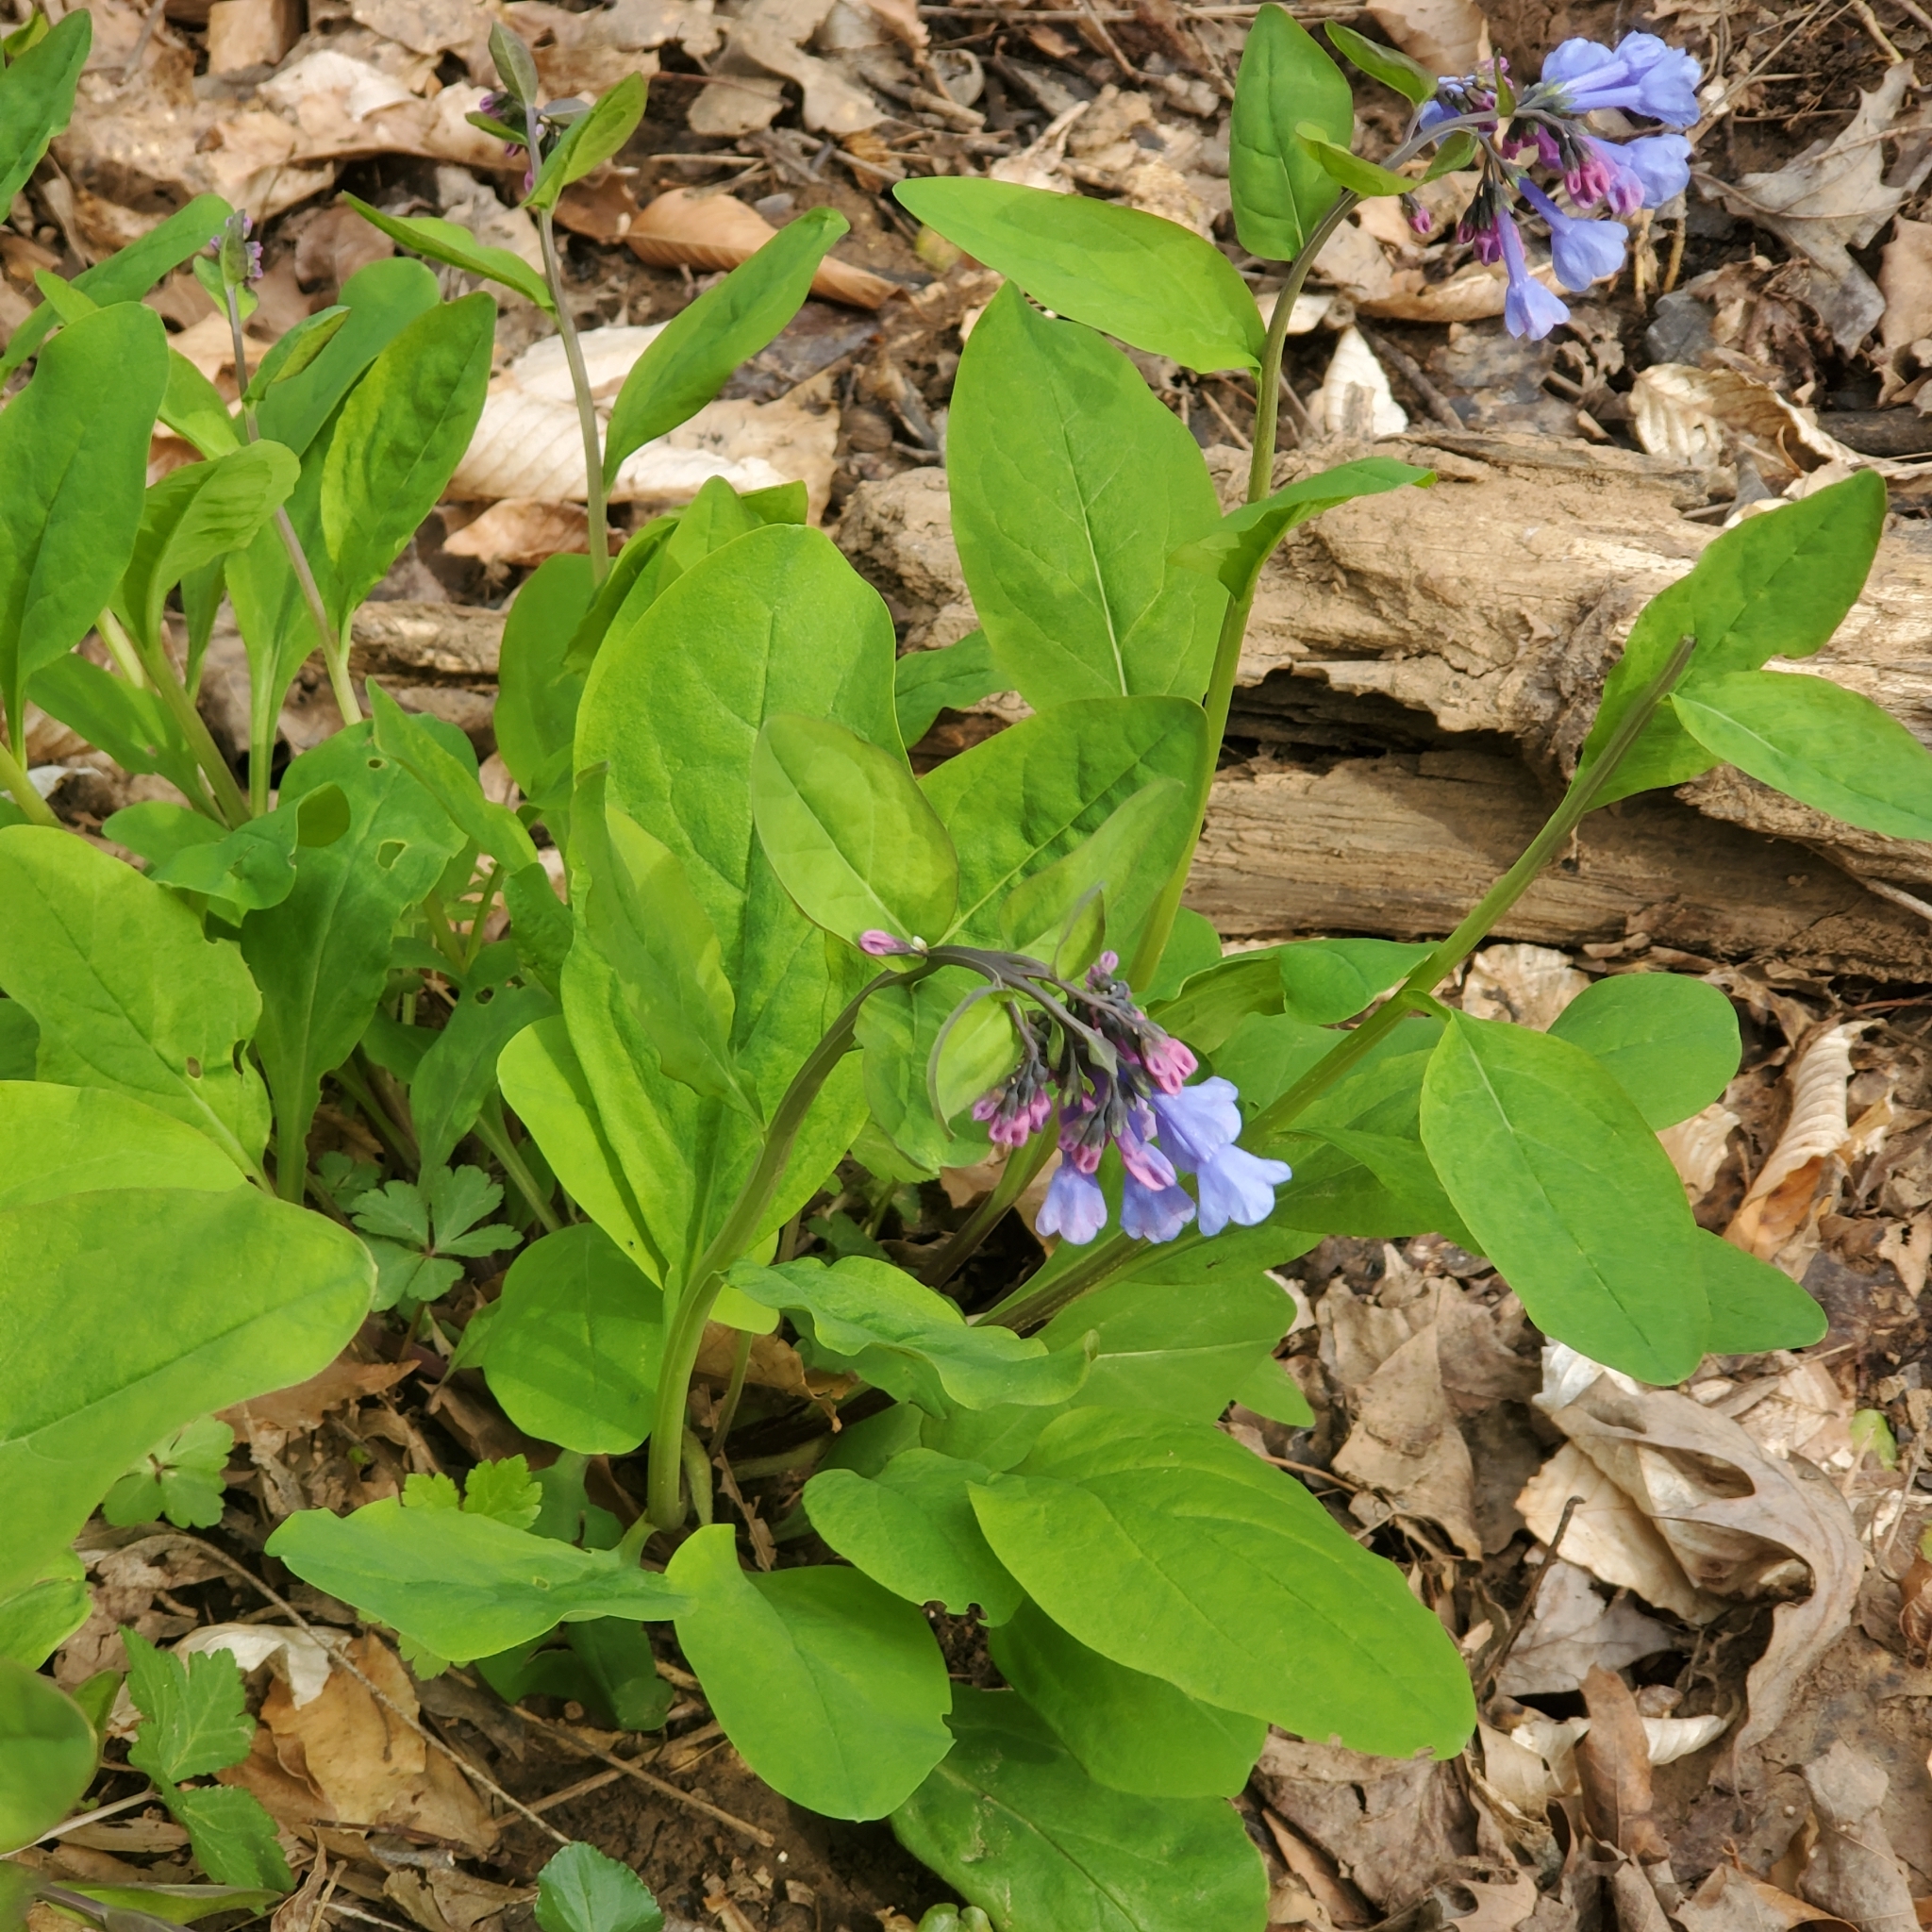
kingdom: Plantae
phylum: Tracheophyta
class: Magnoliopsida
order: Boraginales
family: Boraginaceae
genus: Mertensia
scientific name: Mertensia virginica
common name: Virginia bluebells
